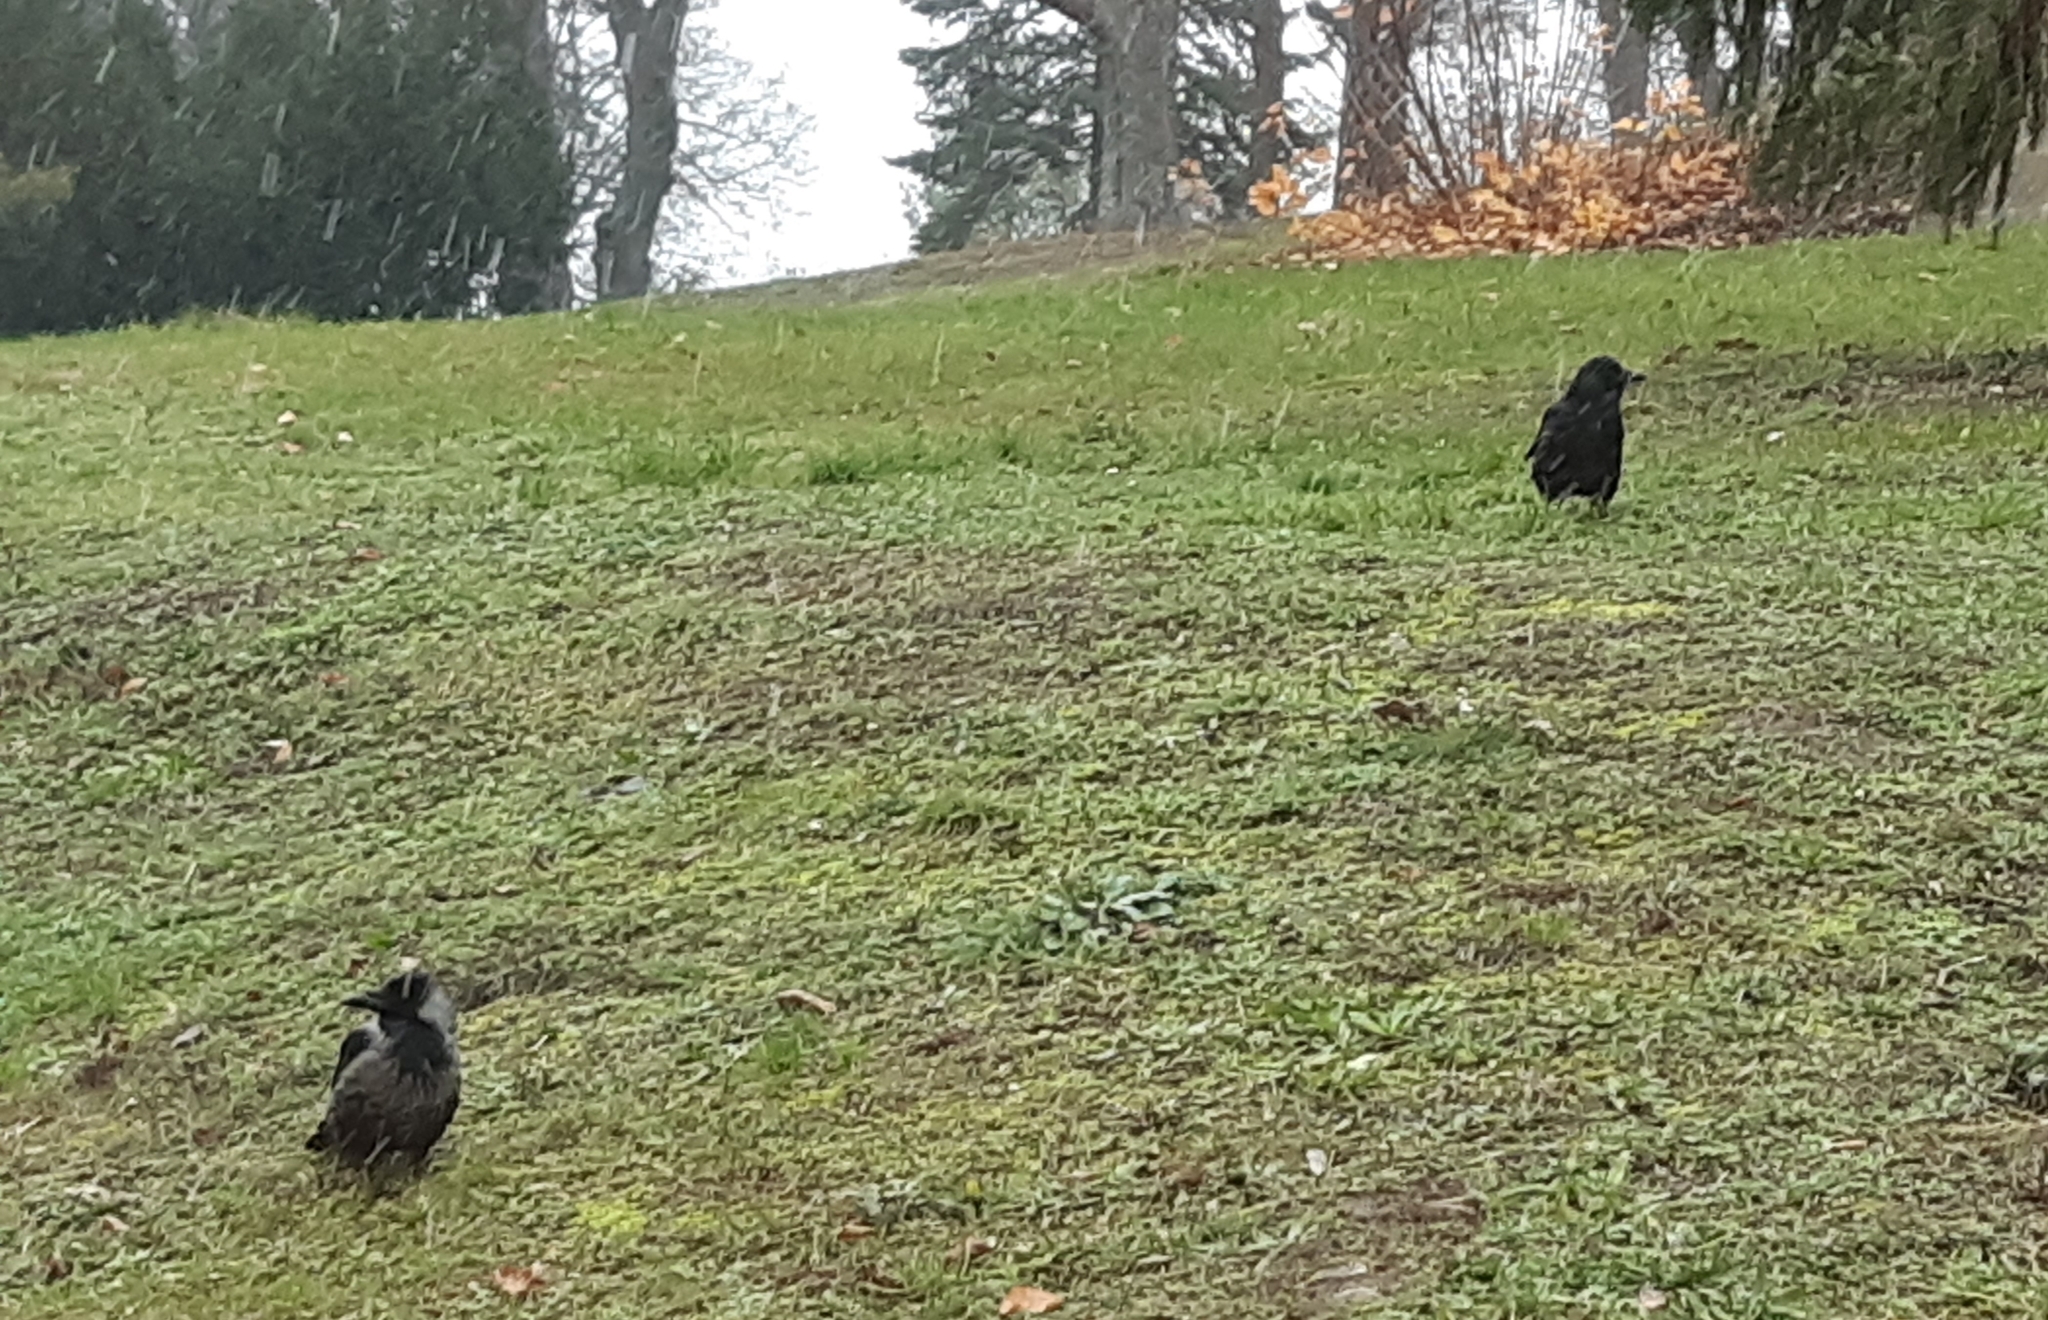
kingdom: Animalia
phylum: Chordata
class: Aves
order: Passeriformes
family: Corvidae
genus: Corvus
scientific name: Corvus
